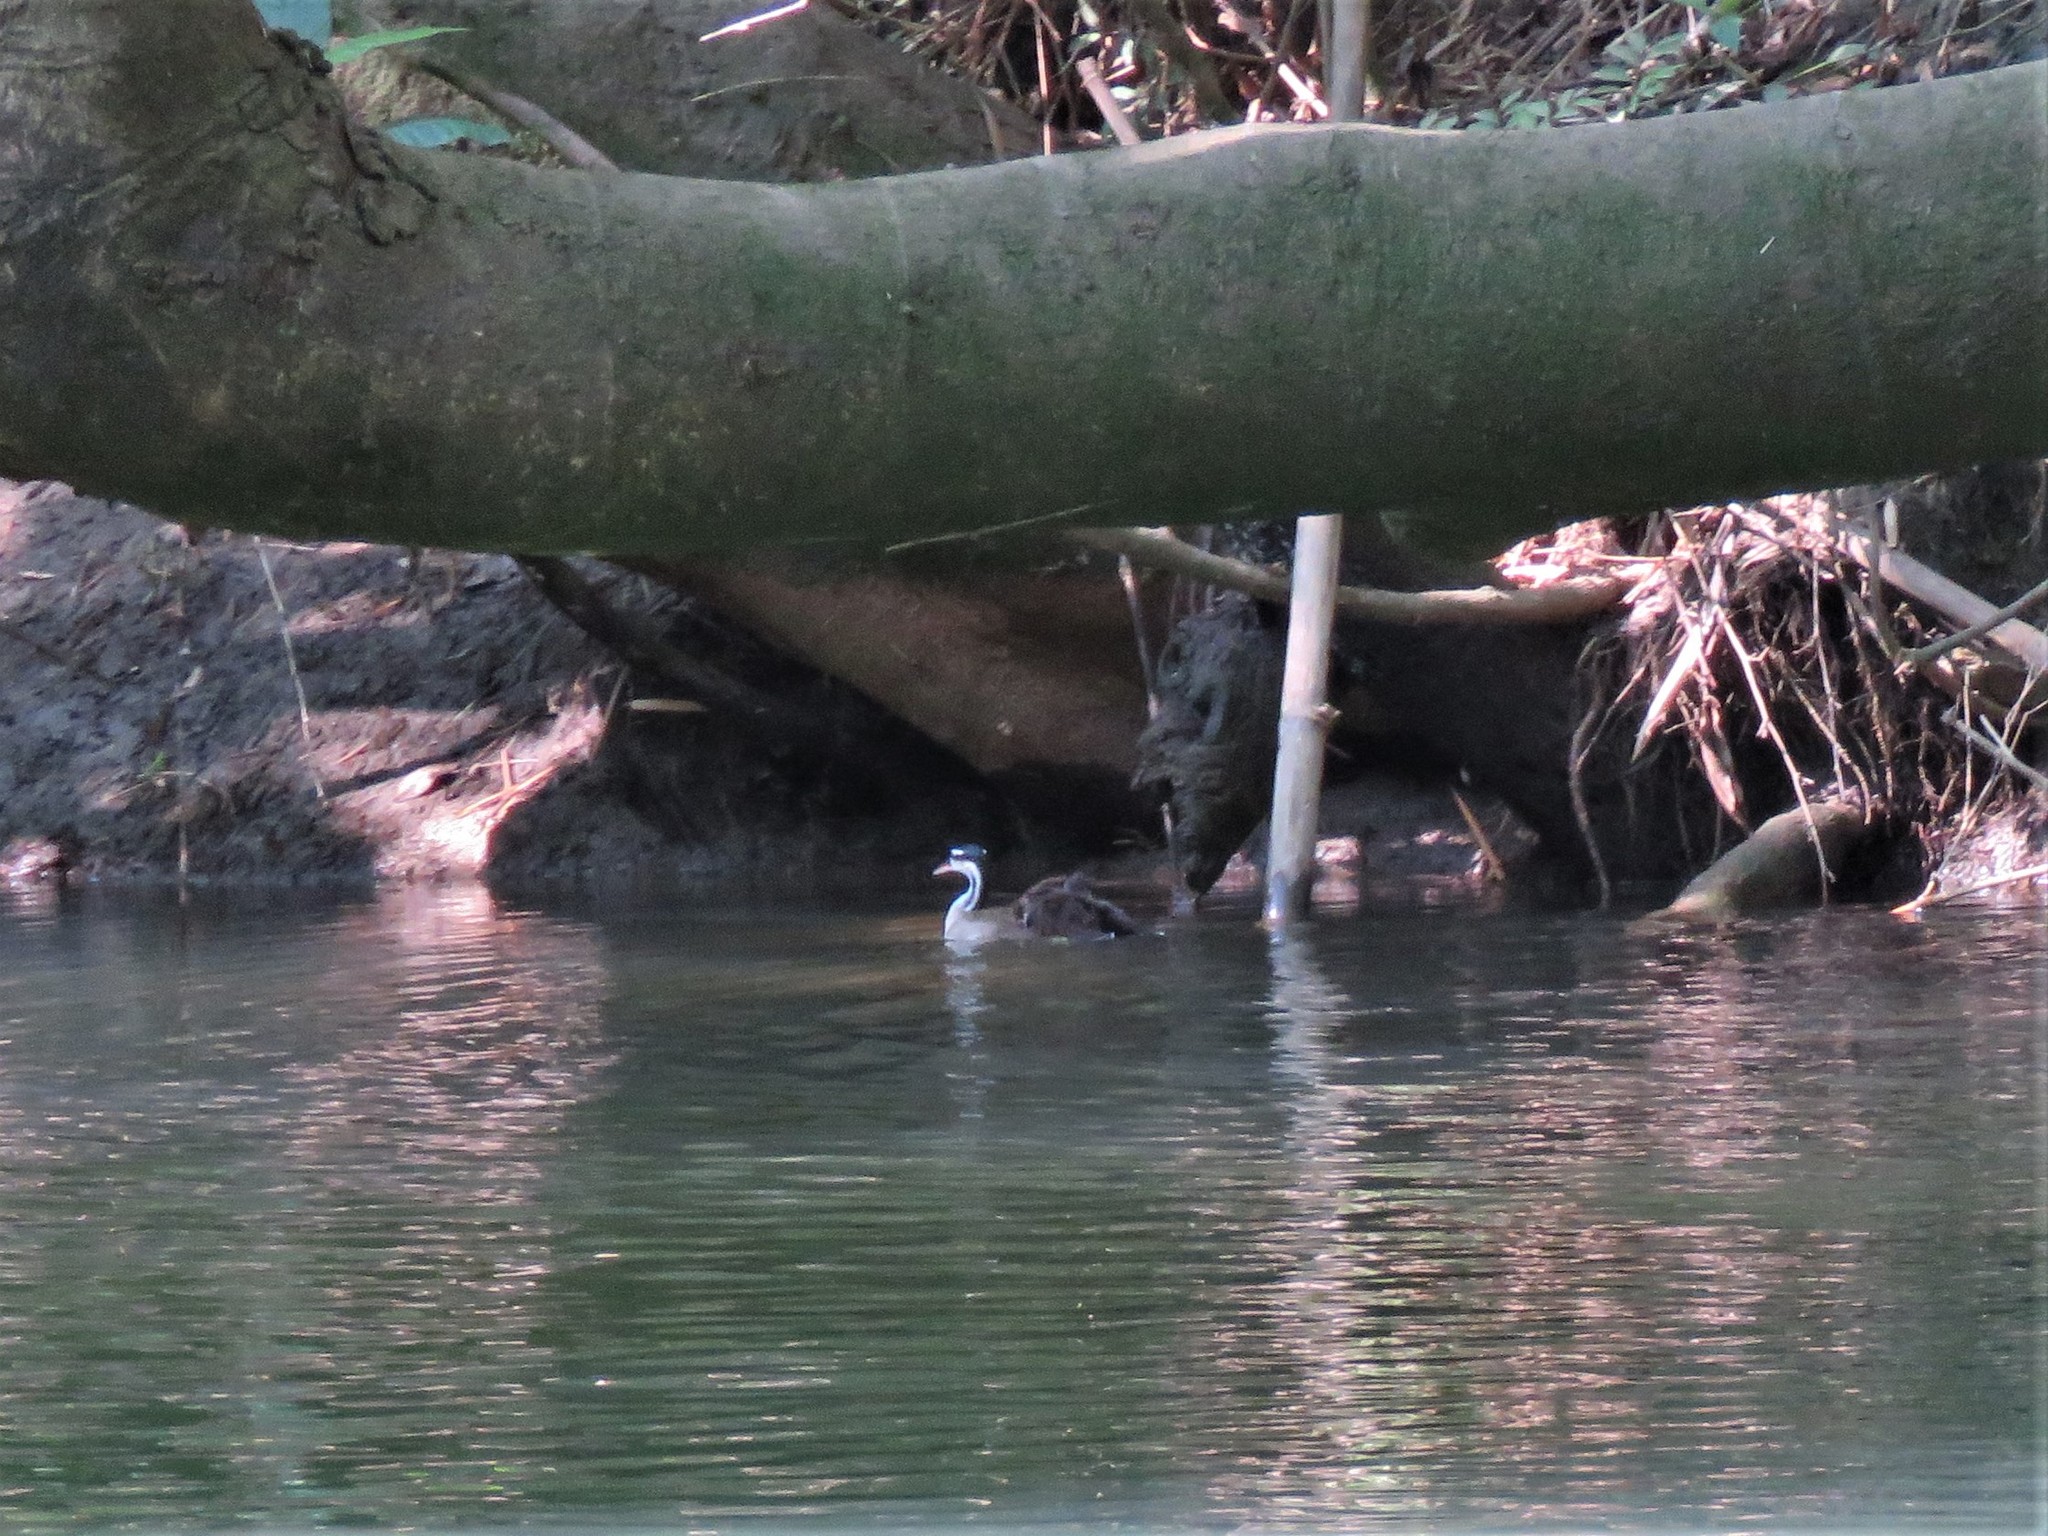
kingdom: Animalia
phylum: Chordata
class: Aves
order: Gruiformes
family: Heliornithidae
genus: Heliornis
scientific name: Heliornis fulica
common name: Sungrebe
